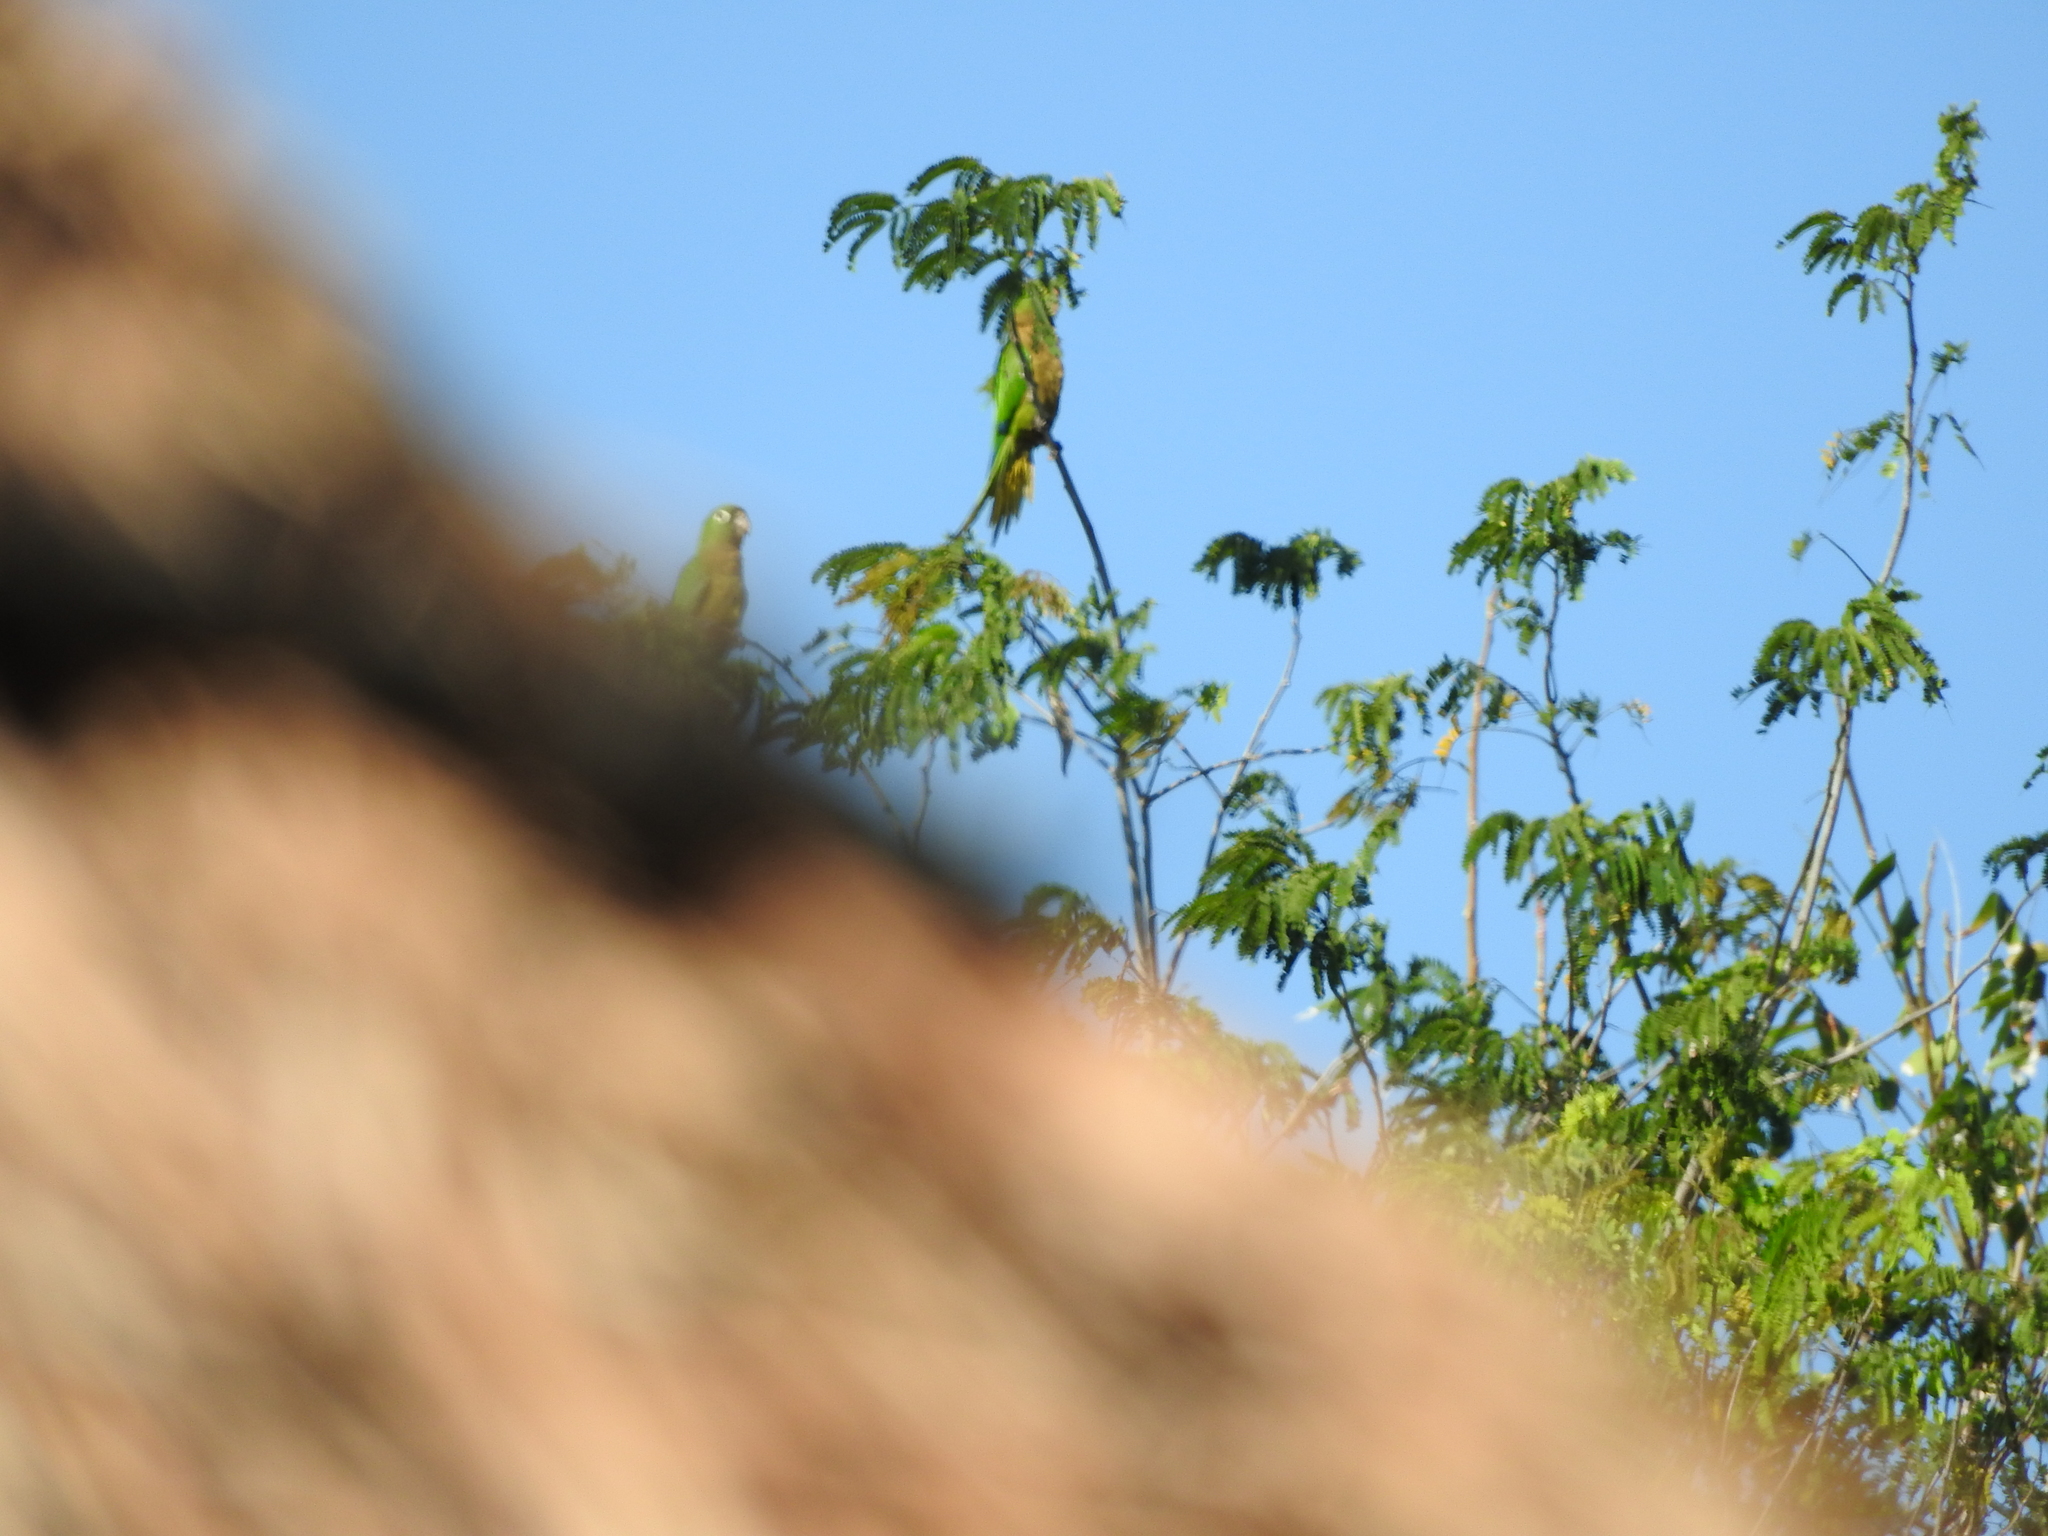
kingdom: Animalia
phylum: Chordata
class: Aves
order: Psittaciformes
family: Psittacidae
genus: Aratinga
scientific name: Aratinga nana
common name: Olive-throated parakeet
